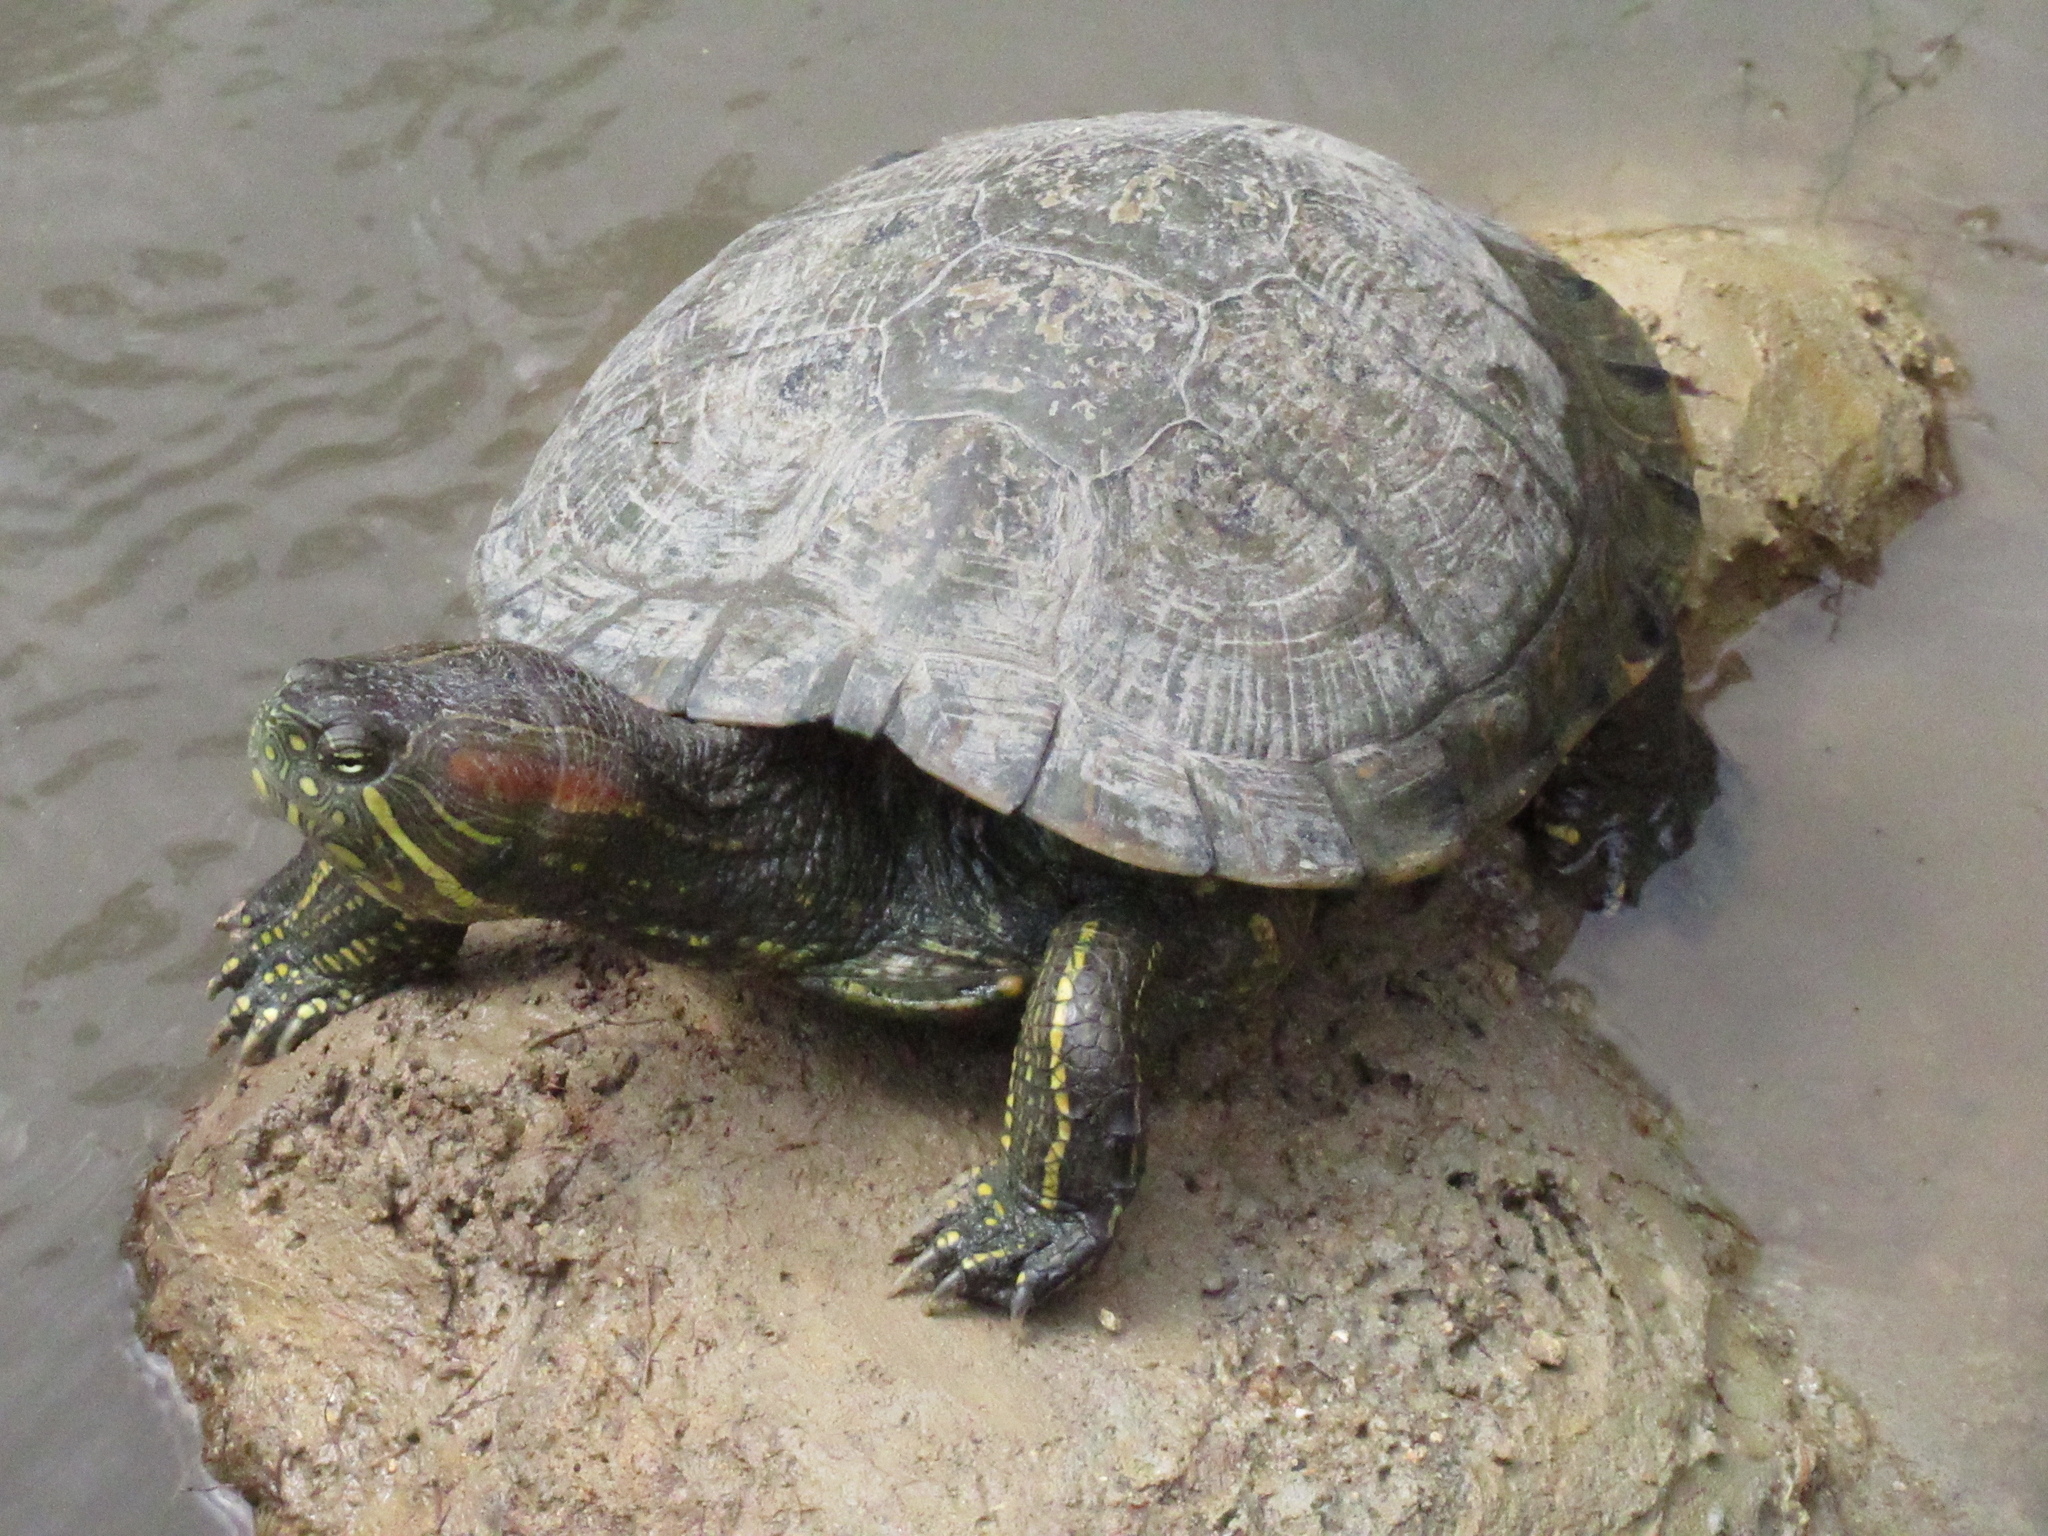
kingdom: Animalia
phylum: Chordata
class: Testudines
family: Emydidae
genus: Trachemys
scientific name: Trachemys callirostris
